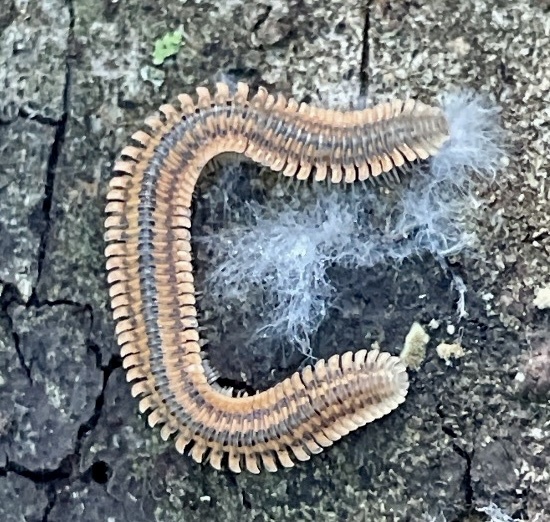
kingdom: Animalia
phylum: Arthropoda
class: Diplopoda
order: Platydesmida
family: Andrognathidae
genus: Brachycybe
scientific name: Brachycybe producta
